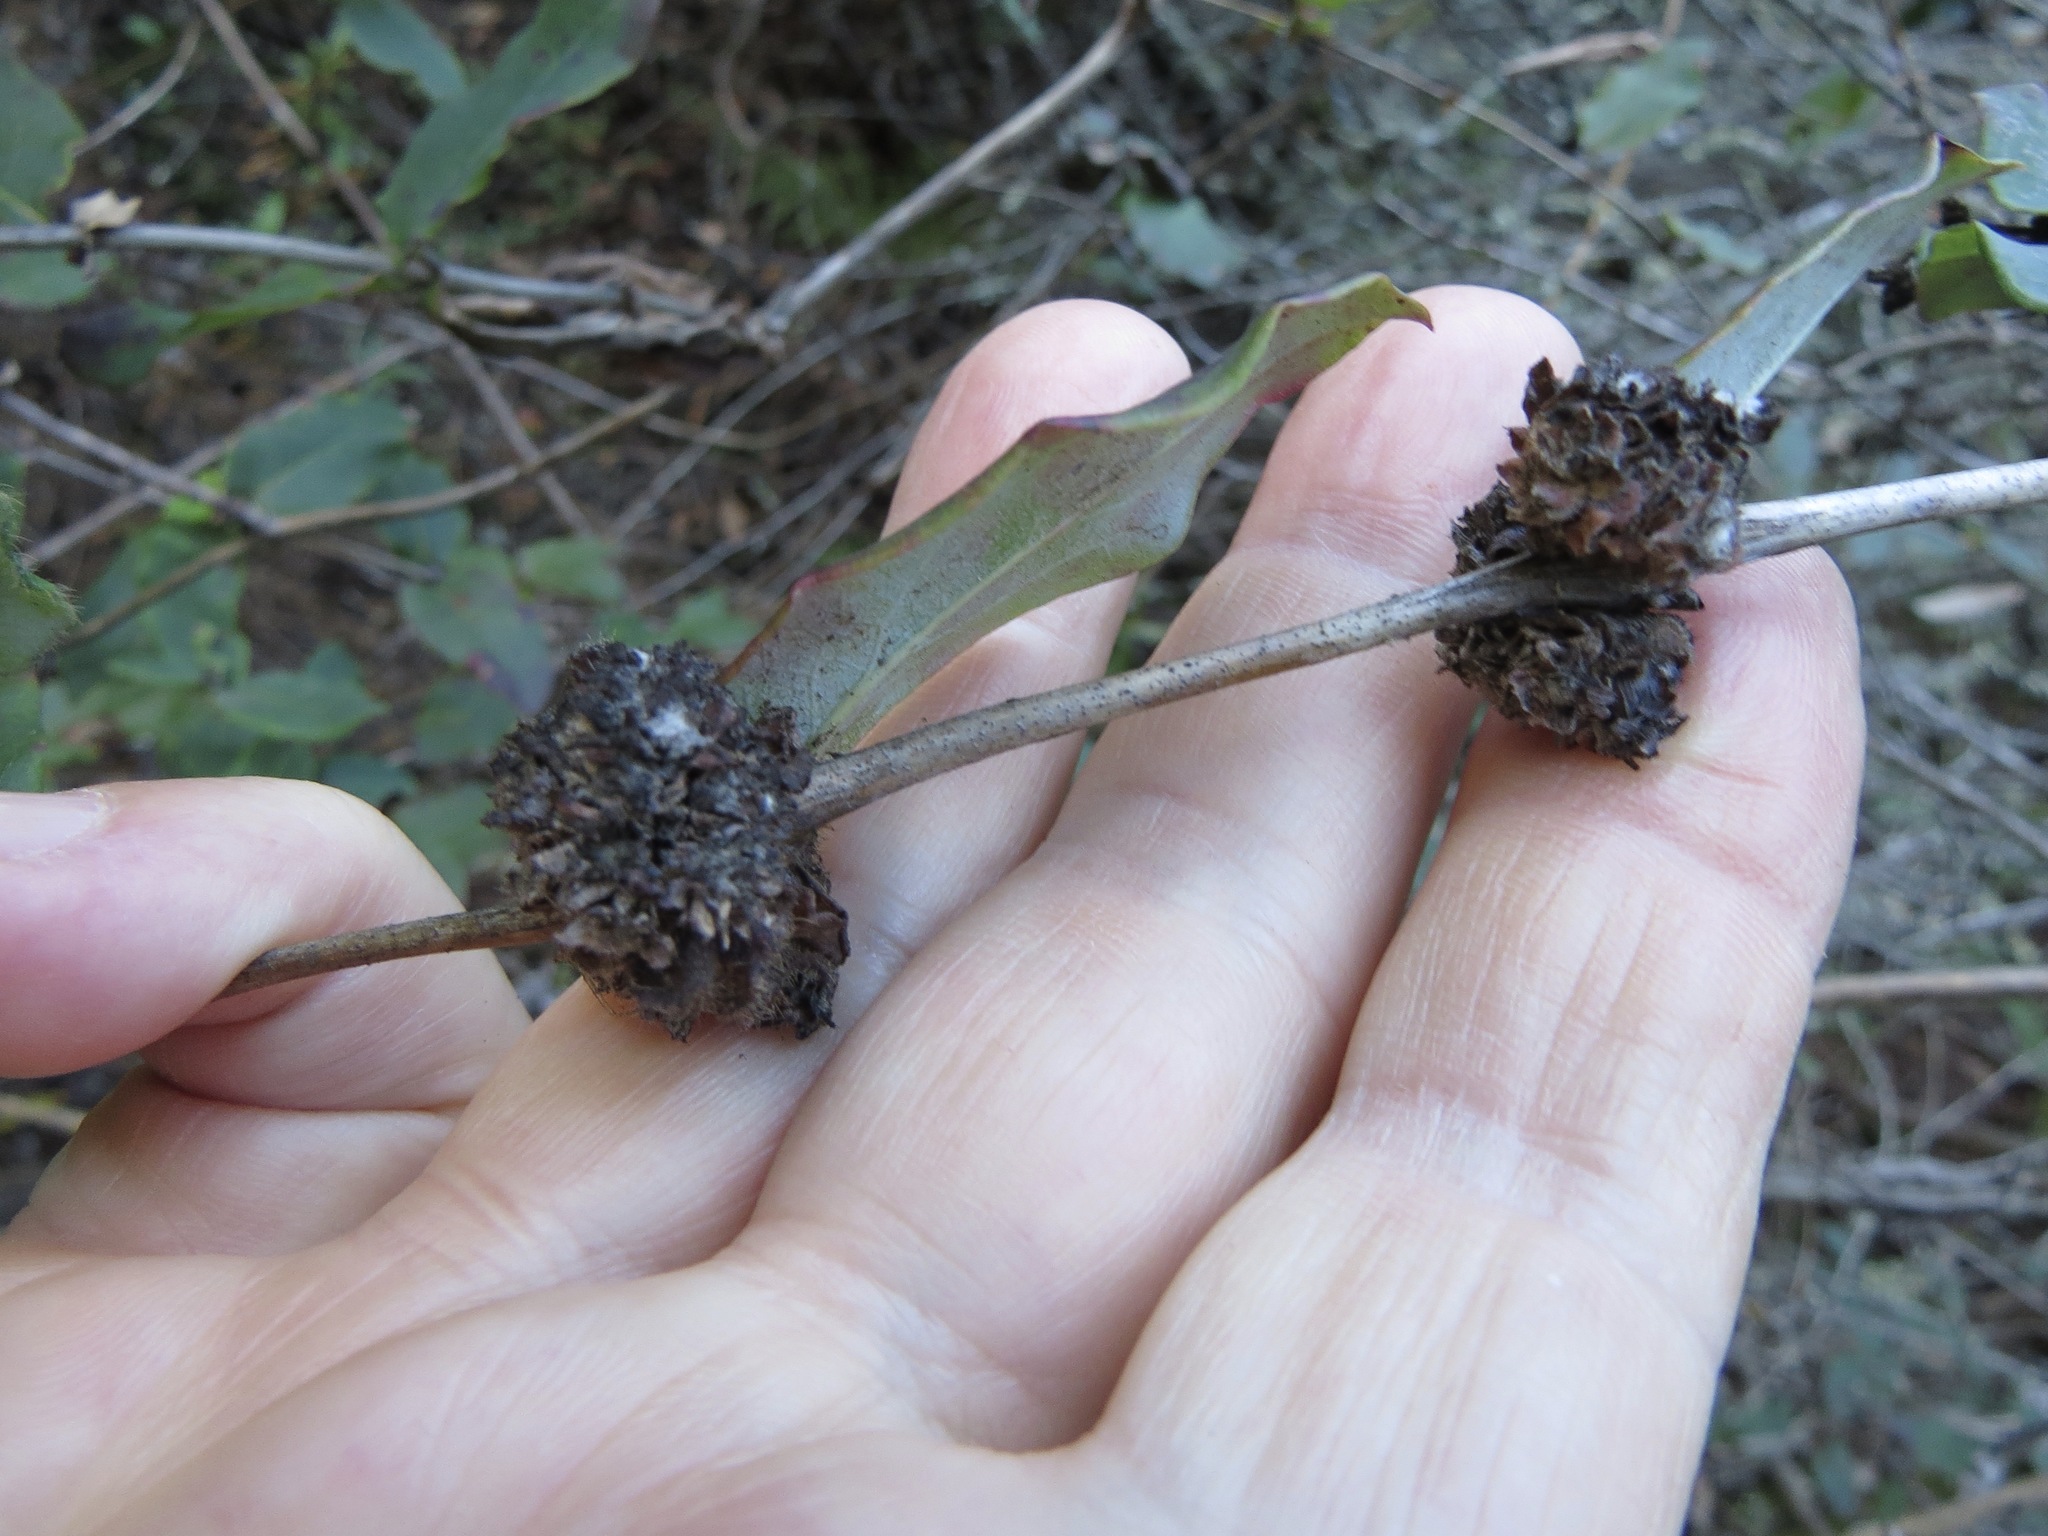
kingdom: Animalia
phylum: Arthropoda
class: Insecta
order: Diptera
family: Cecidomyiidae
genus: Lonicerae
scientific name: Lonicerae russoi
